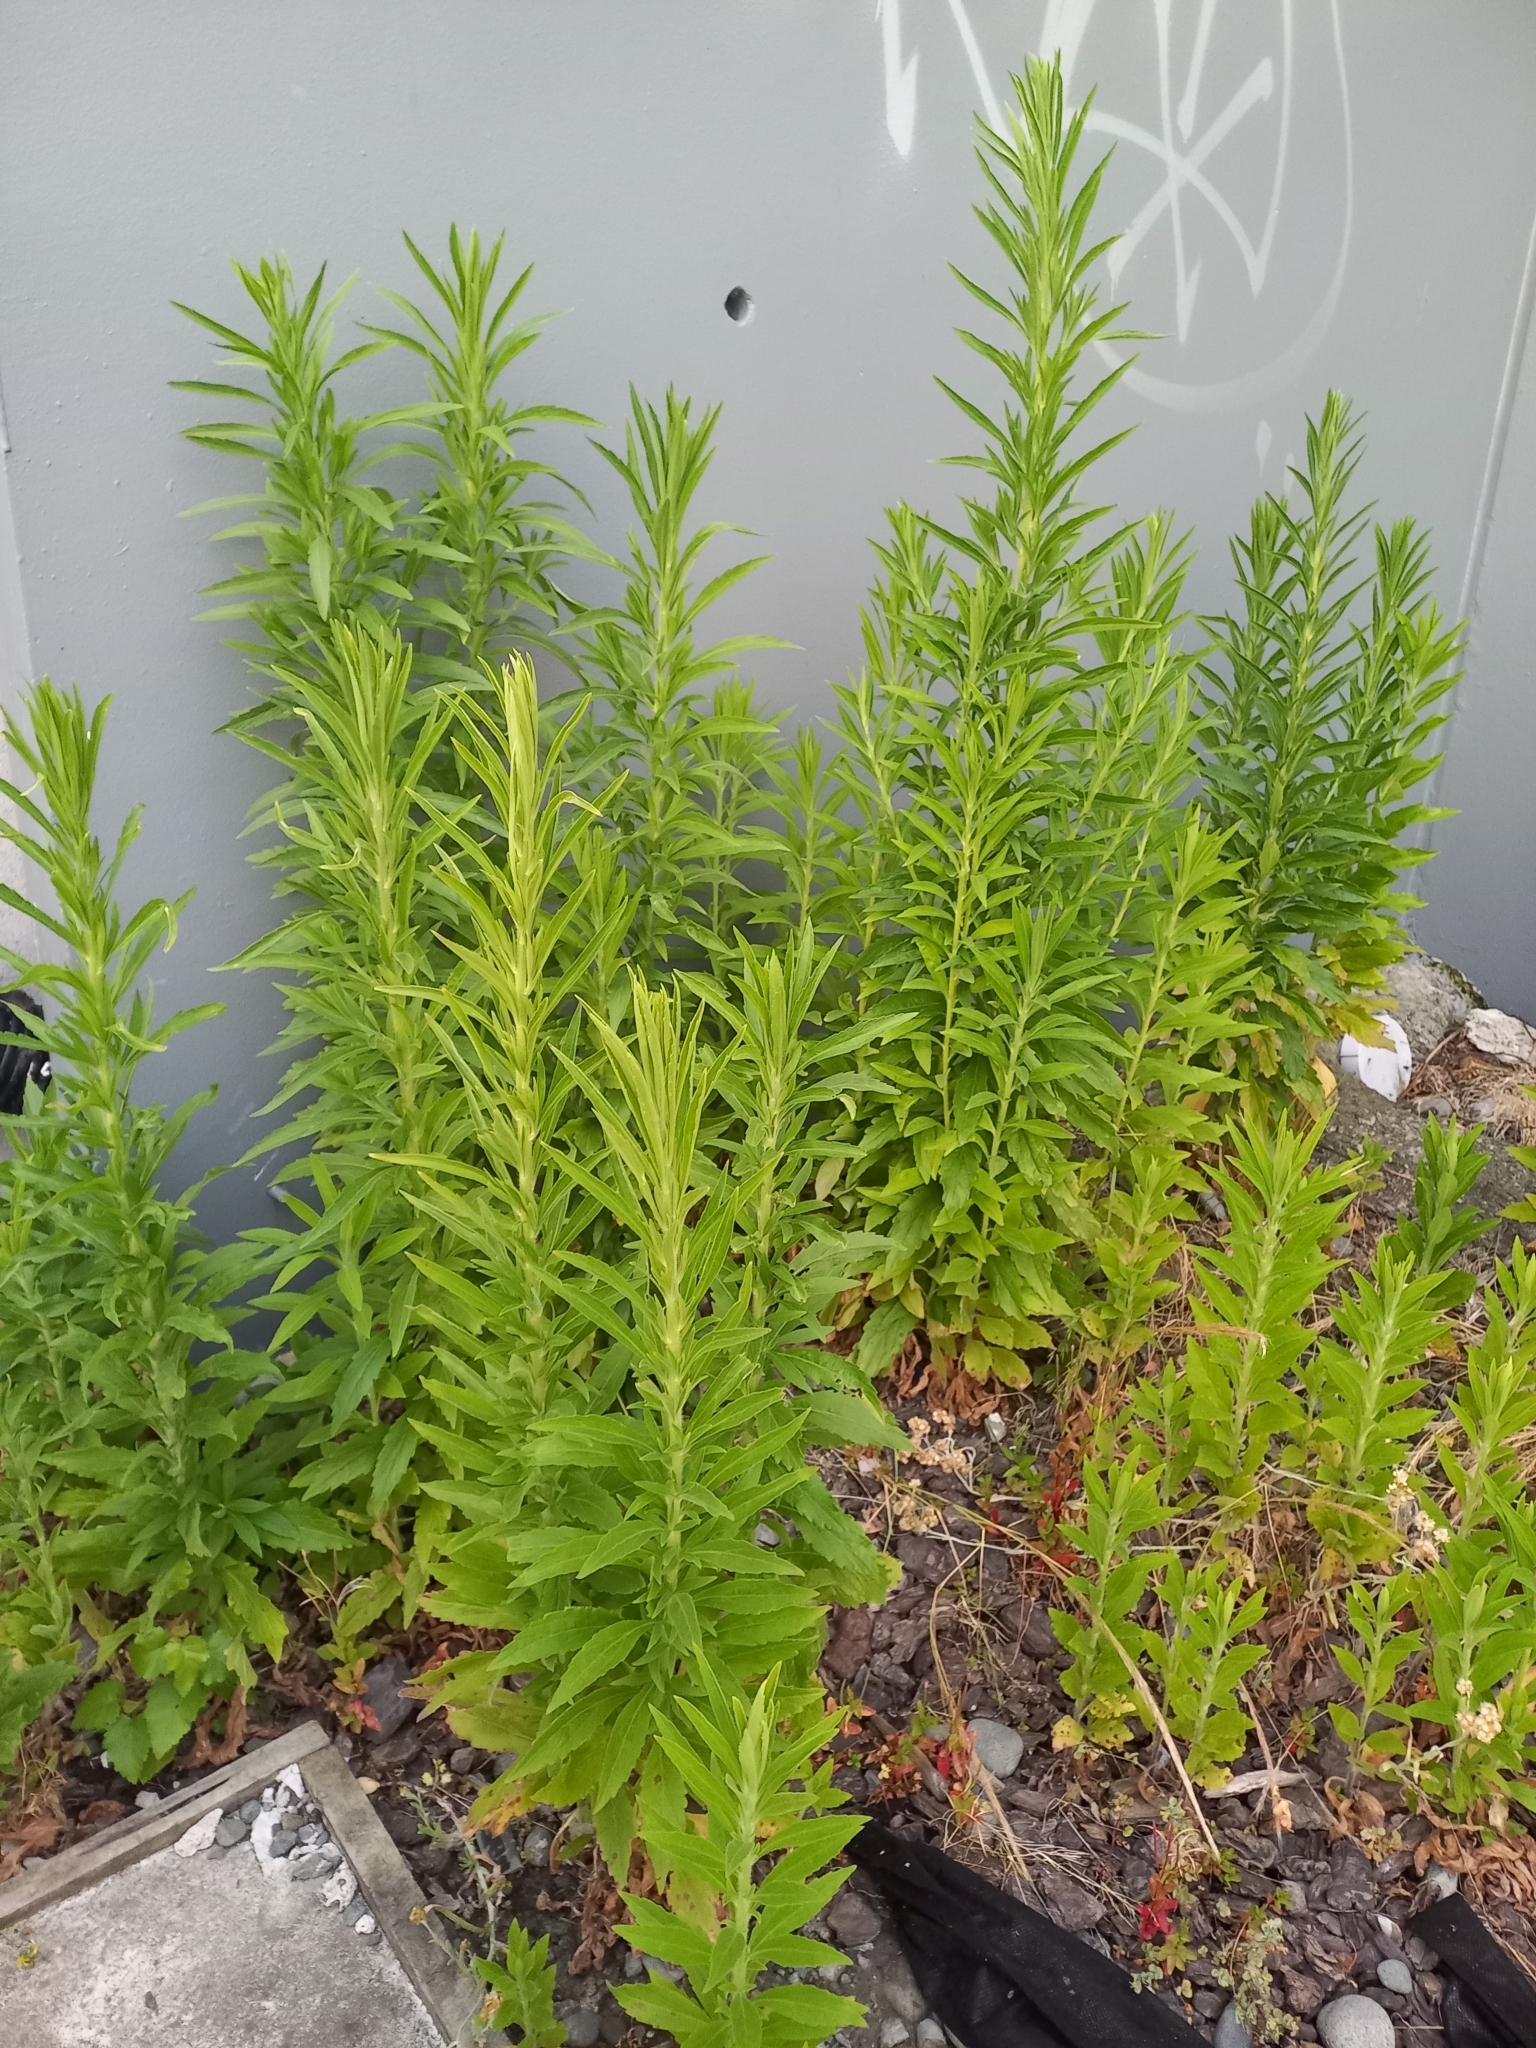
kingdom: Plantae
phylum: Tracheophyta
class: Magnoliopsida
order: Asterales
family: Asteraceae
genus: Erigeron
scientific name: Erigeron sumatrensis
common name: Daisy
